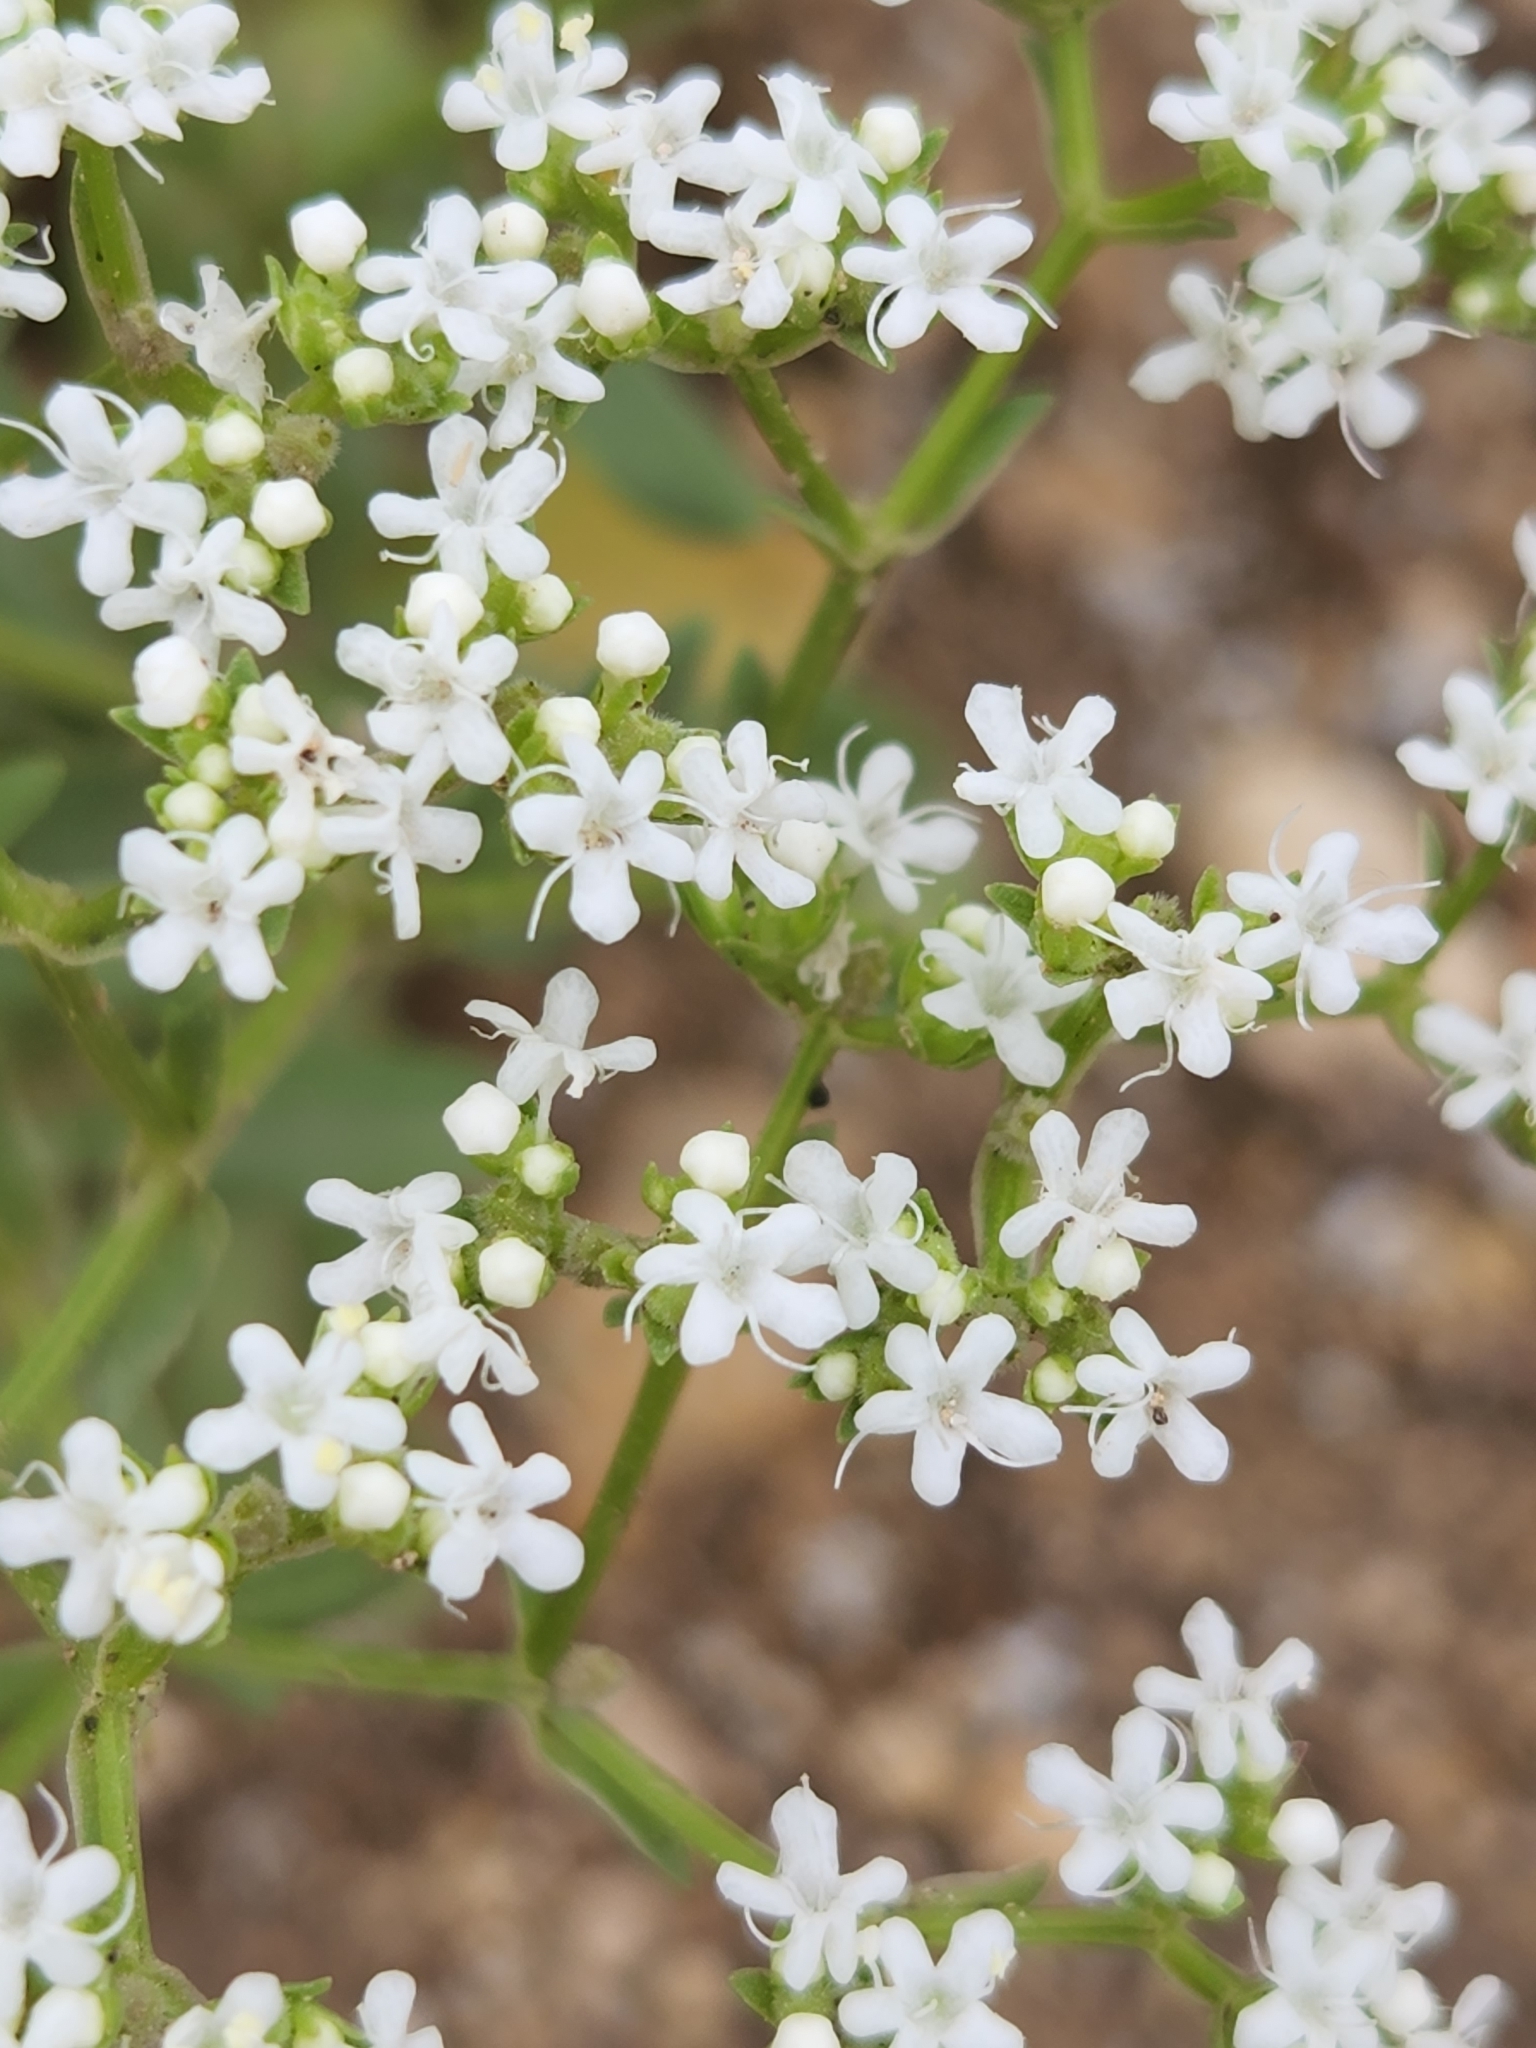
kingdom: Plantae
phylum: Tracheophyta
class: Magnoliopsida
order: Dipsacales
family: Caprifoliaceae
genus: Valerianella
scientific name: Valerianella amarella
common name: Hariy cornsalad
